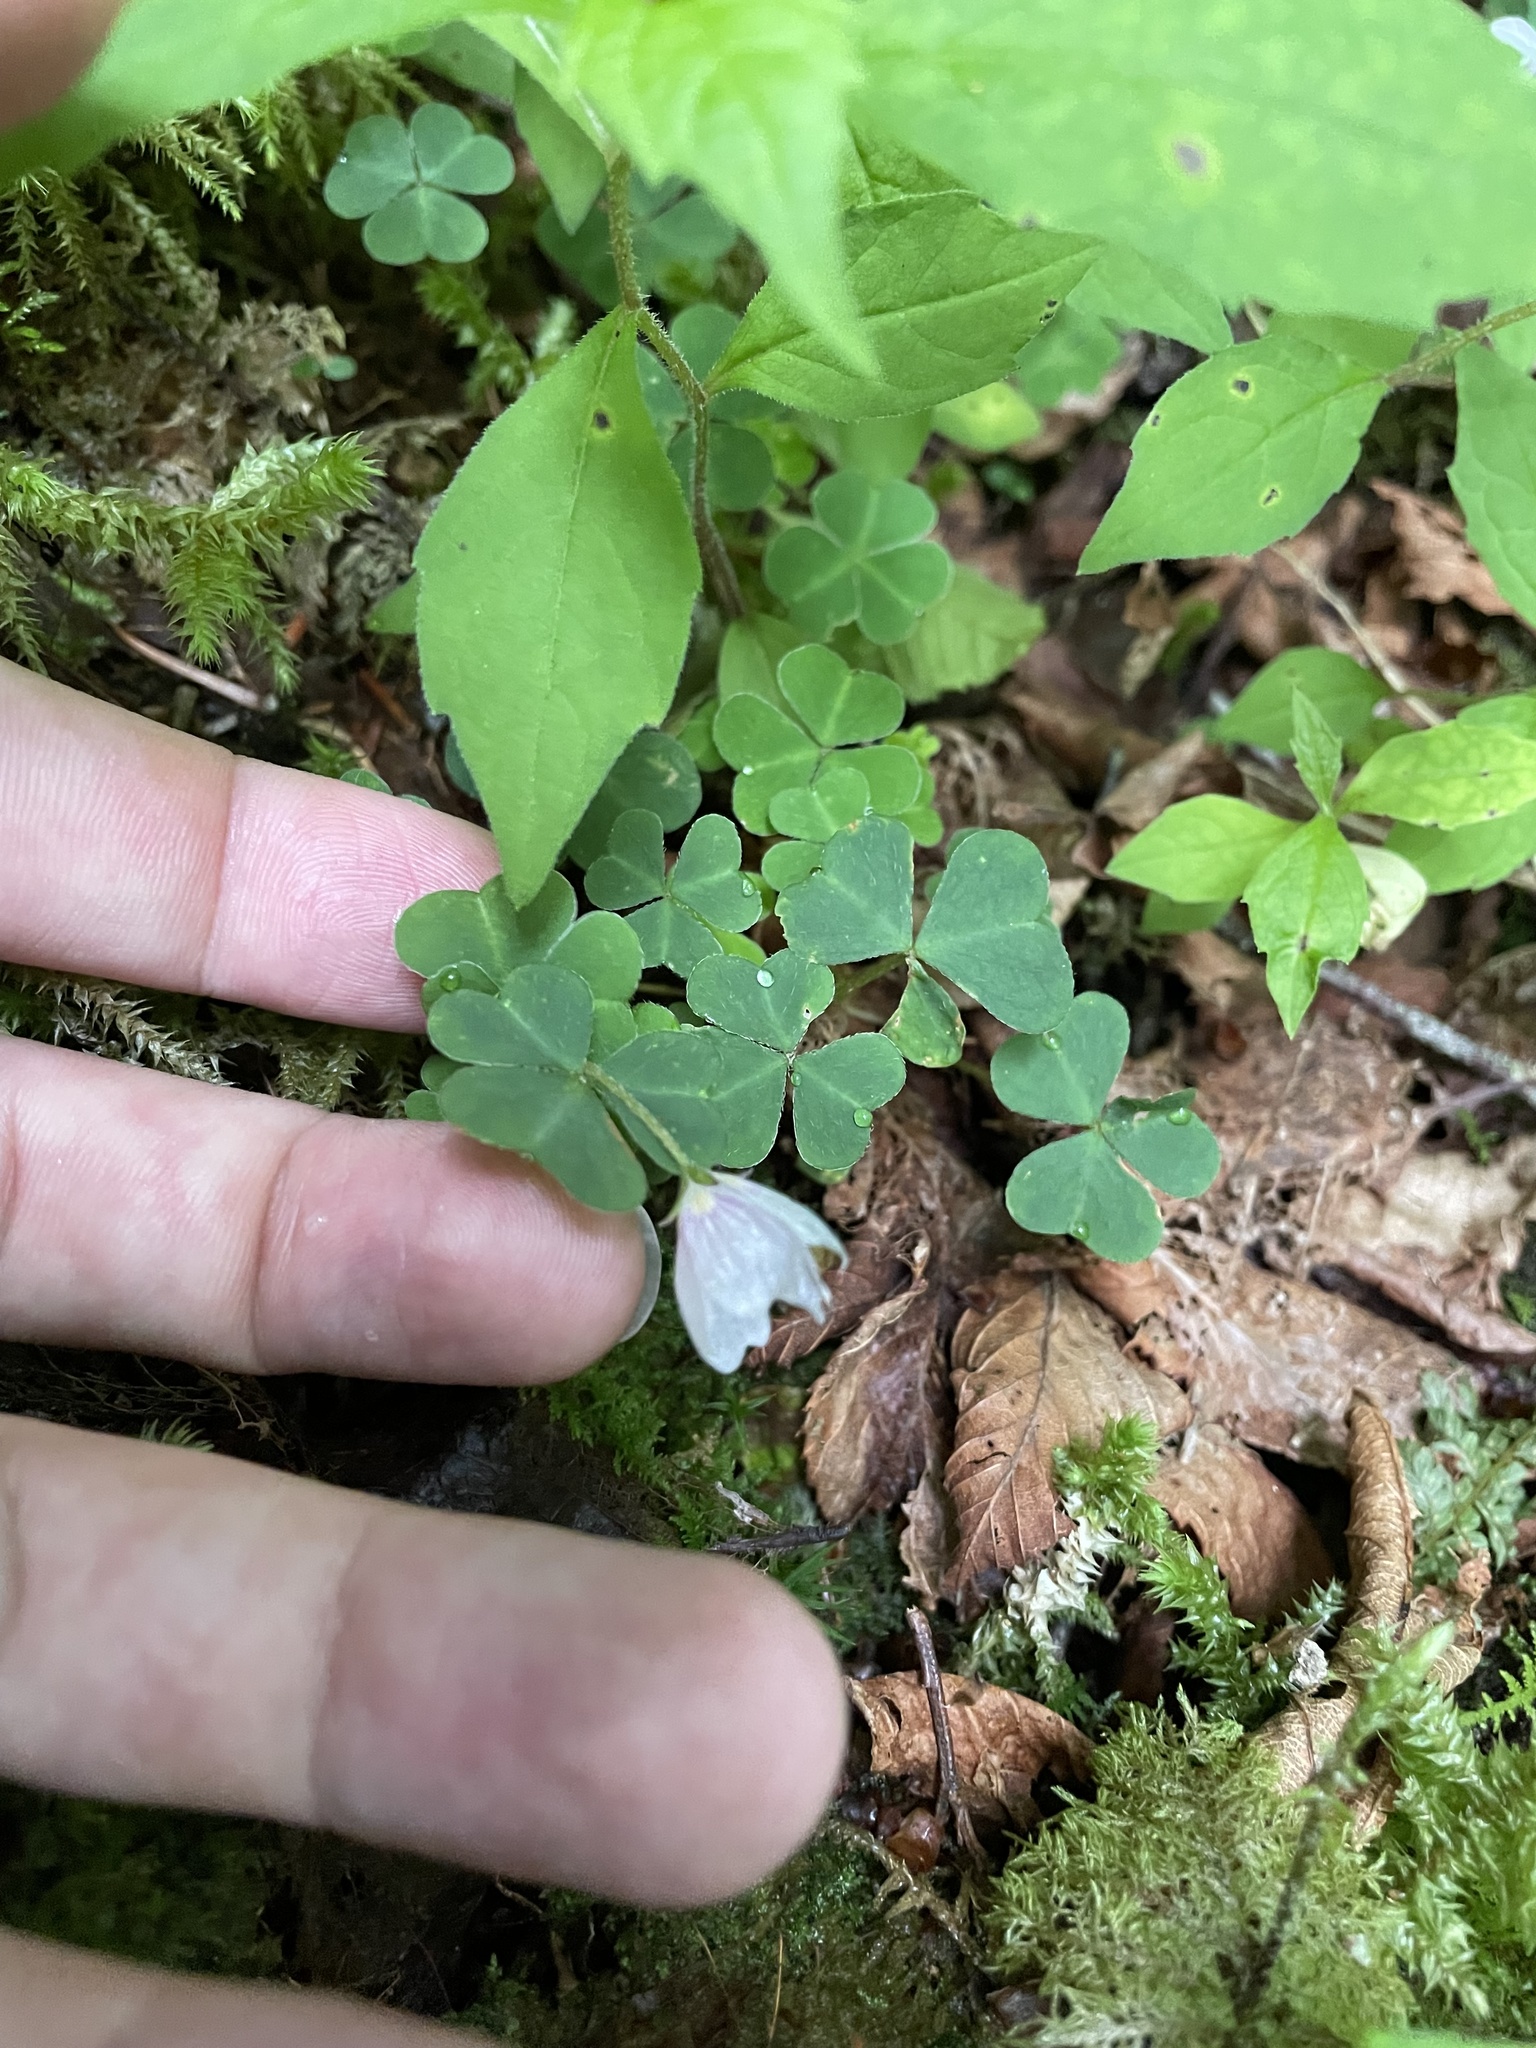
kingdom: Plantae
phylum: Tracheophyta
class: Magnoliopsida
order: Oxalidales
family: Oxalidaceae
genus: Oxalis
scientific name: Oxalis montana
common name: American wood-sorrel
